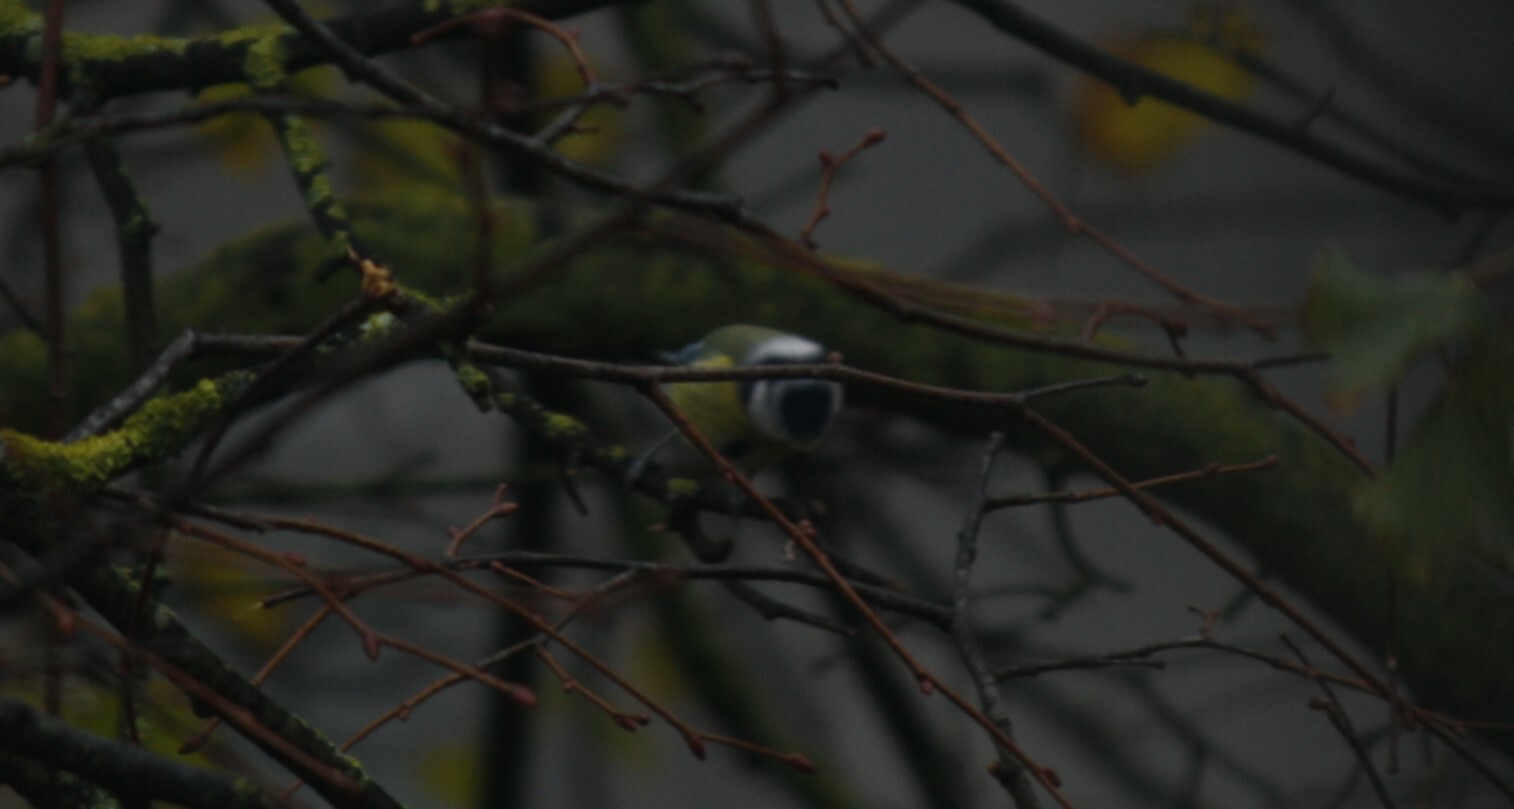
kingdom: Animalia
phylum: Chordata
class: Aves
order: Passeriformes
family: Paridae
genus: Cyanistes
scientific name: Cyanistes caeruleus
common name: Eurasian blue tit
